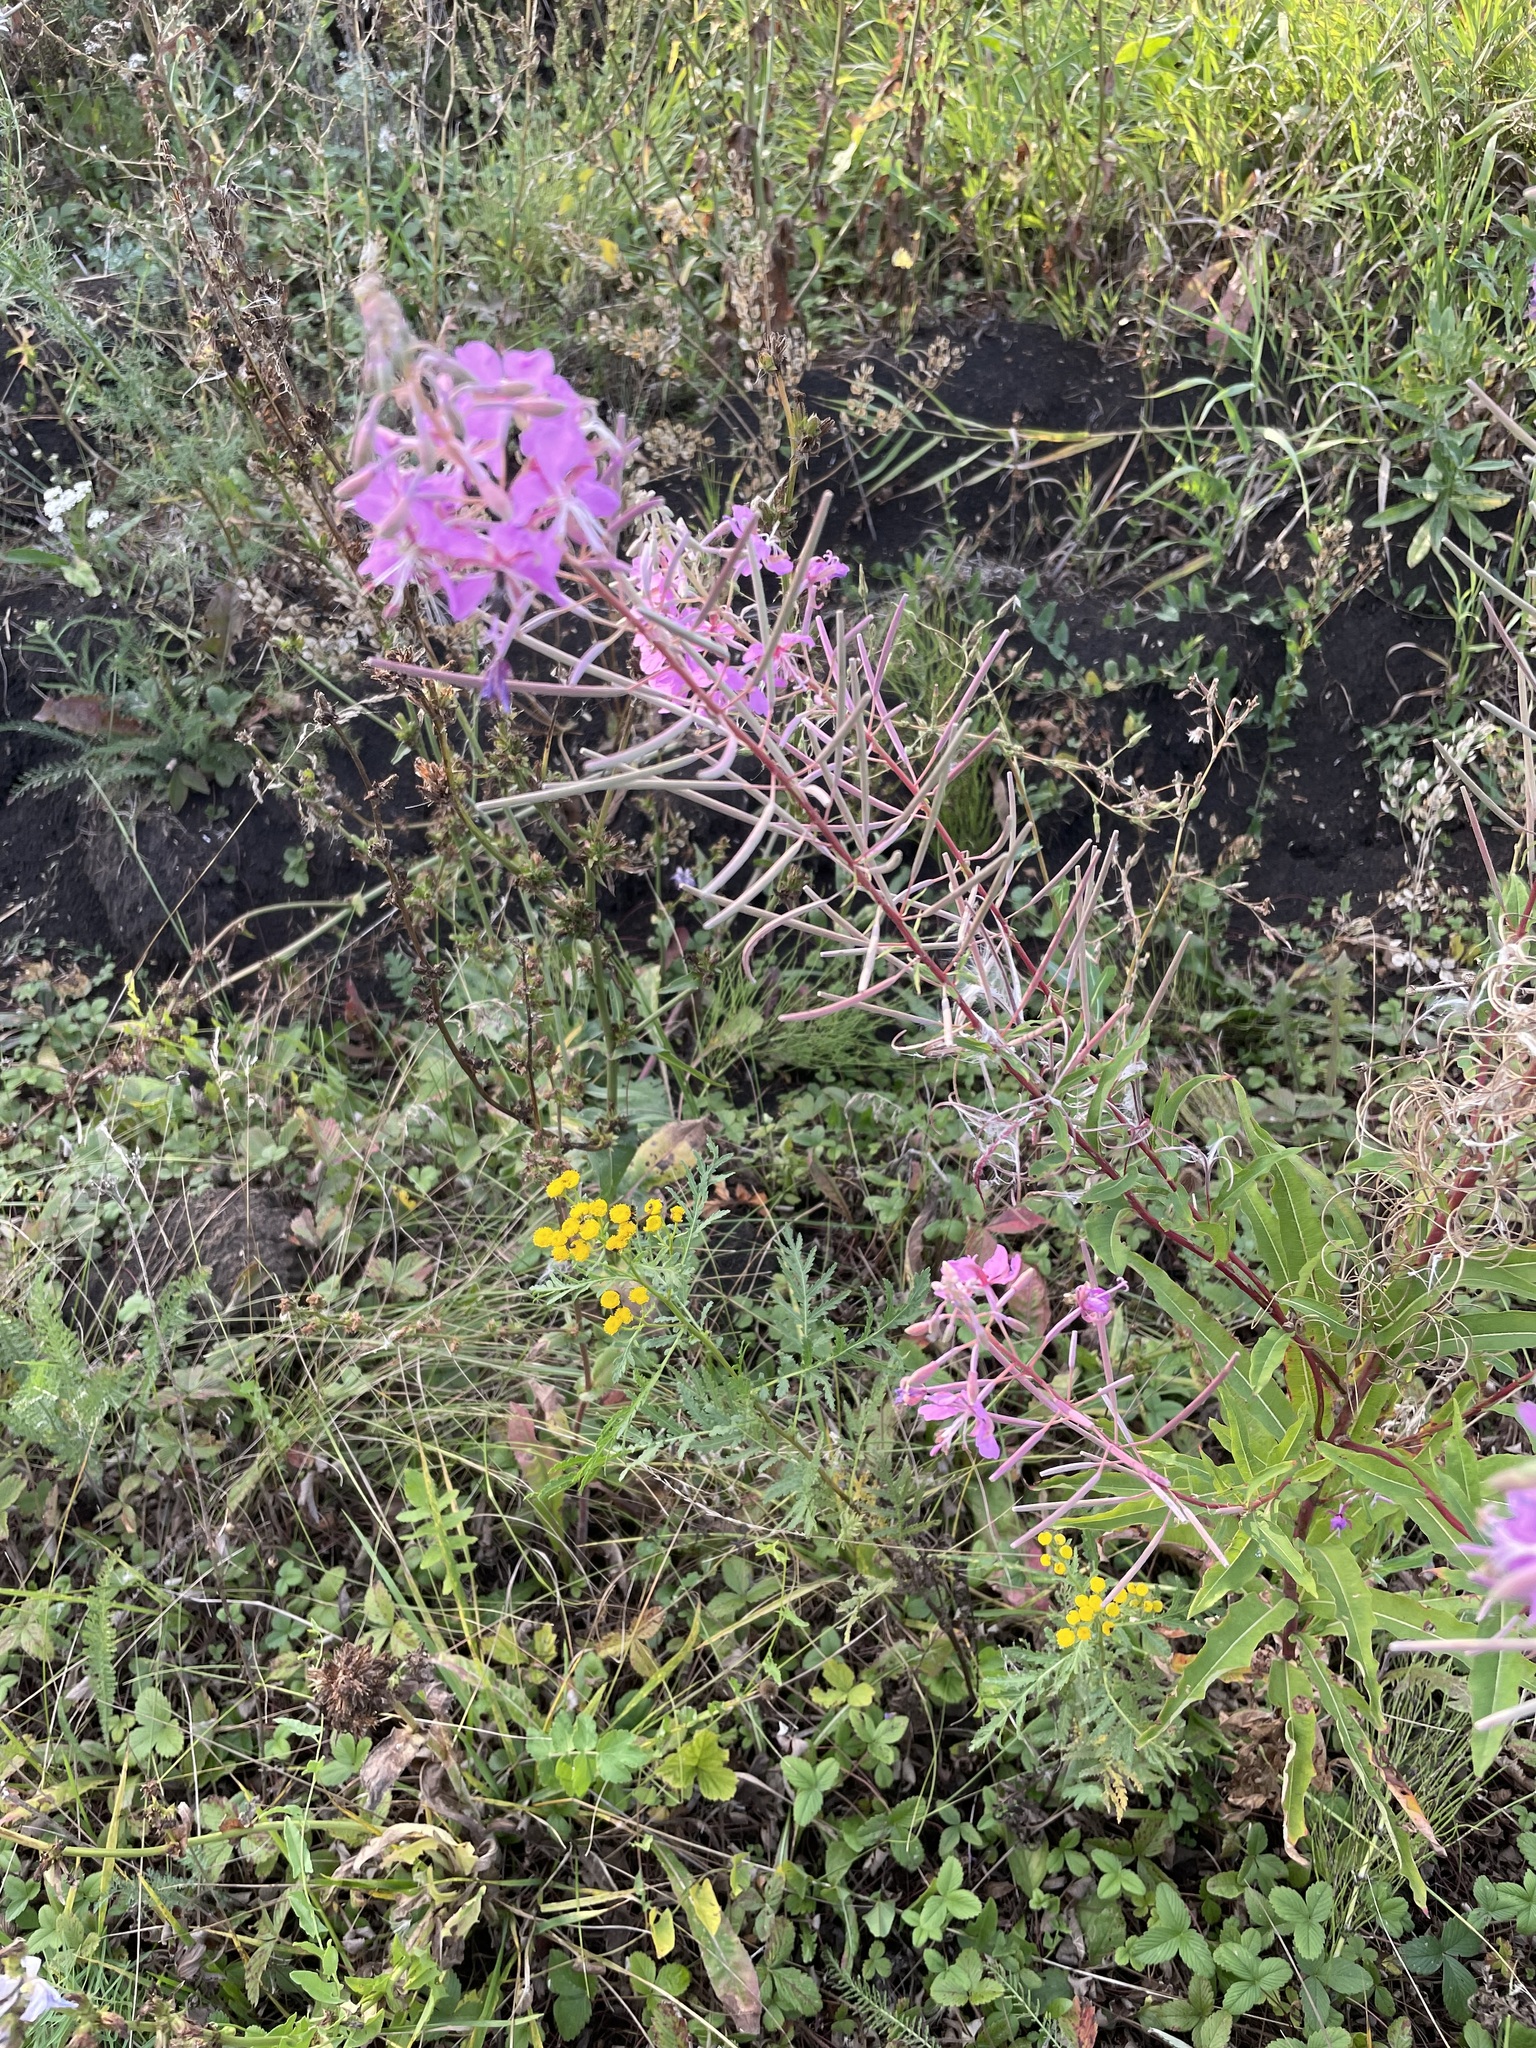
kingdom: Plantae
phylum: Tracheophyta
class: Magnoliopsida
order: Myrtales
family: Onagraceae
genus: Chamaenerion
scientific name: Chamaenerion angustifolium
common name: Fireweed
